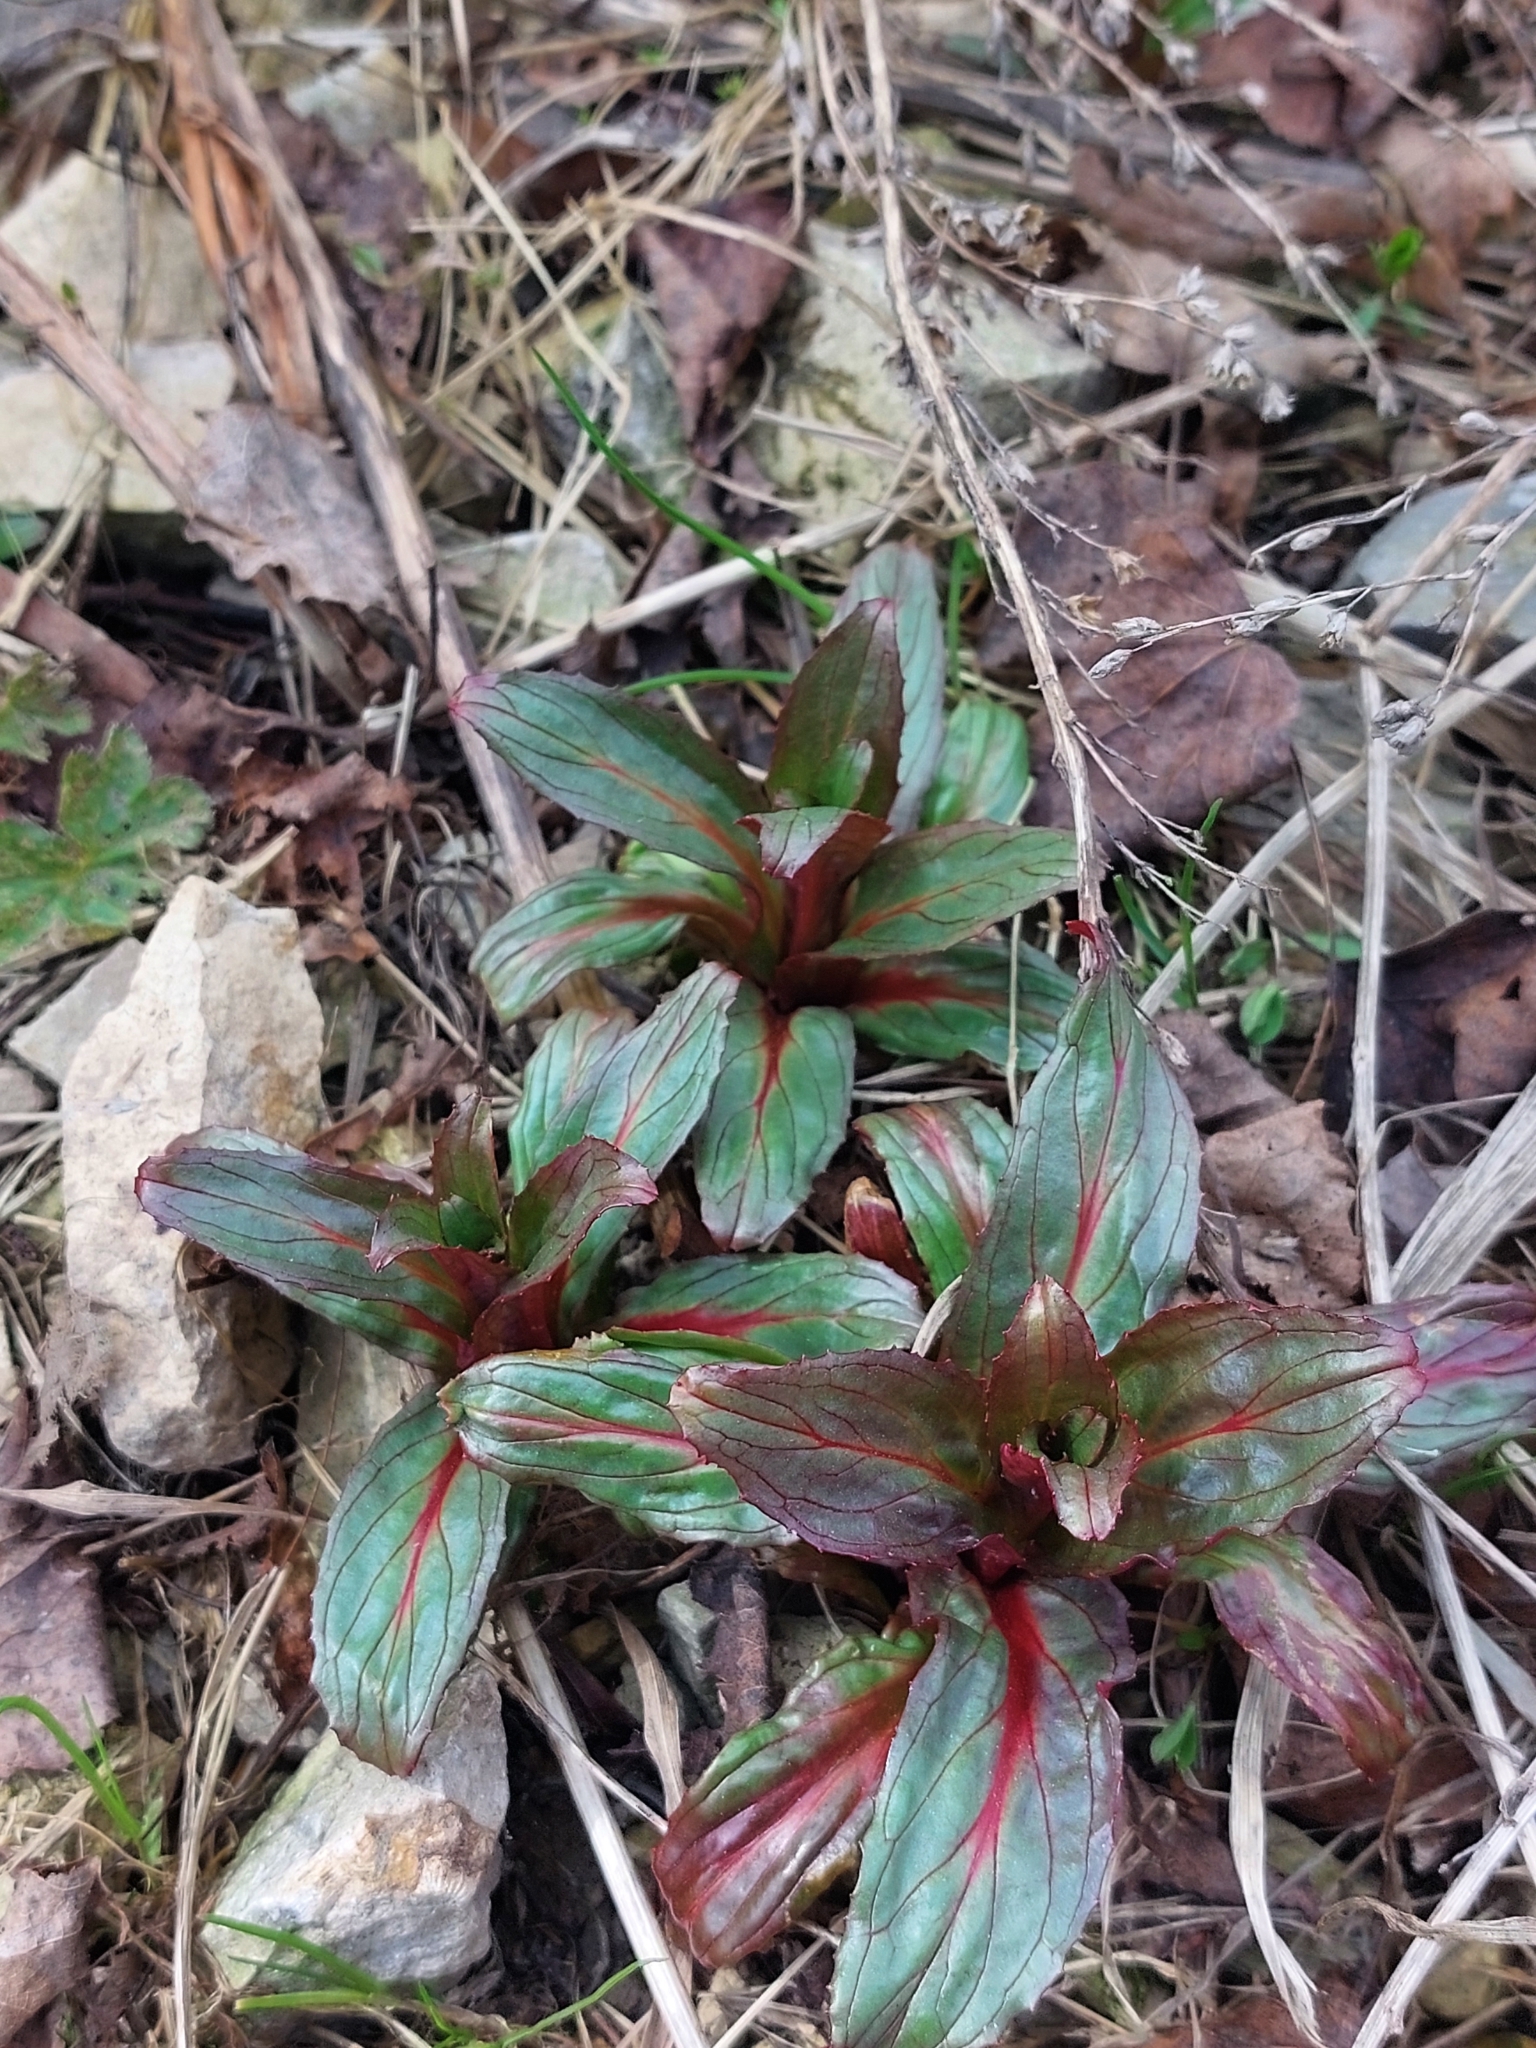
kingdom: Plantae
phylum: Tracheophyta
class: Magnoliopsida
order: Myrtales
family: Onagraceae
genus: Epilobium
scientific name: Epilobium hirsutum
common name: Great willowherb
